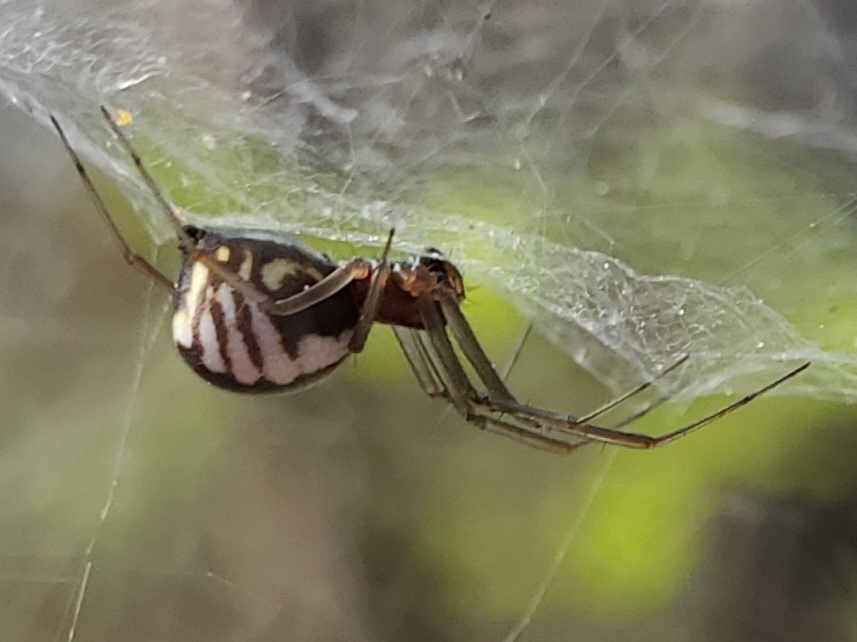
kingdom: Animalia
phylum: Arthropoda
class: Arachnida
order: Araneae
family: Linyphiidae
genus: Frontinella
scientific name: Frontinella pyramitela
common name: Bowl-and-doily spider
